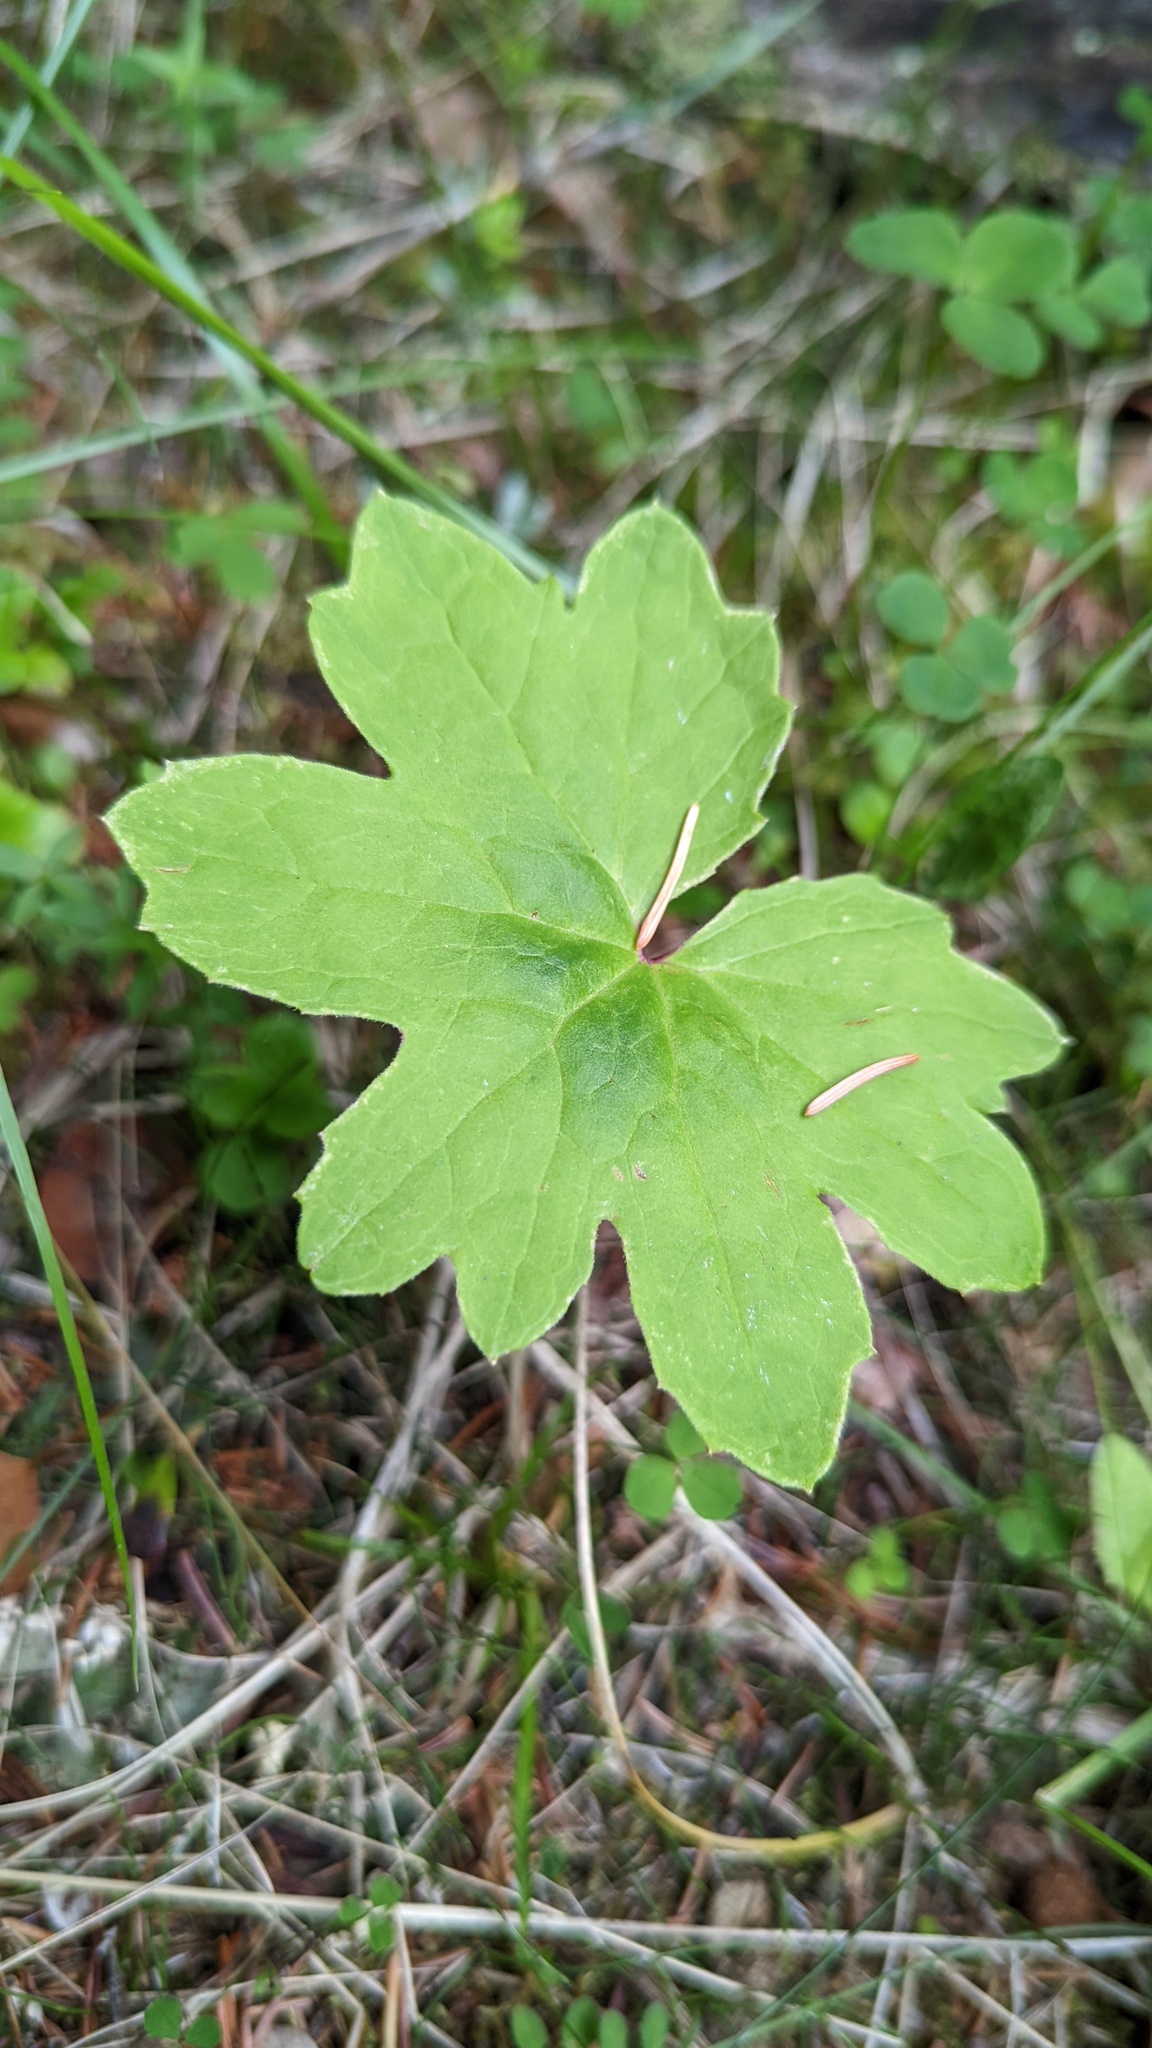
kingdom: Plantae
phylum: Tracheophyta
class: Magnoliopsida
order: Asterales
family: Asteraceae
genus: Petasites
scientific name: Petasites frigidus
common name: Arctic butterbur
